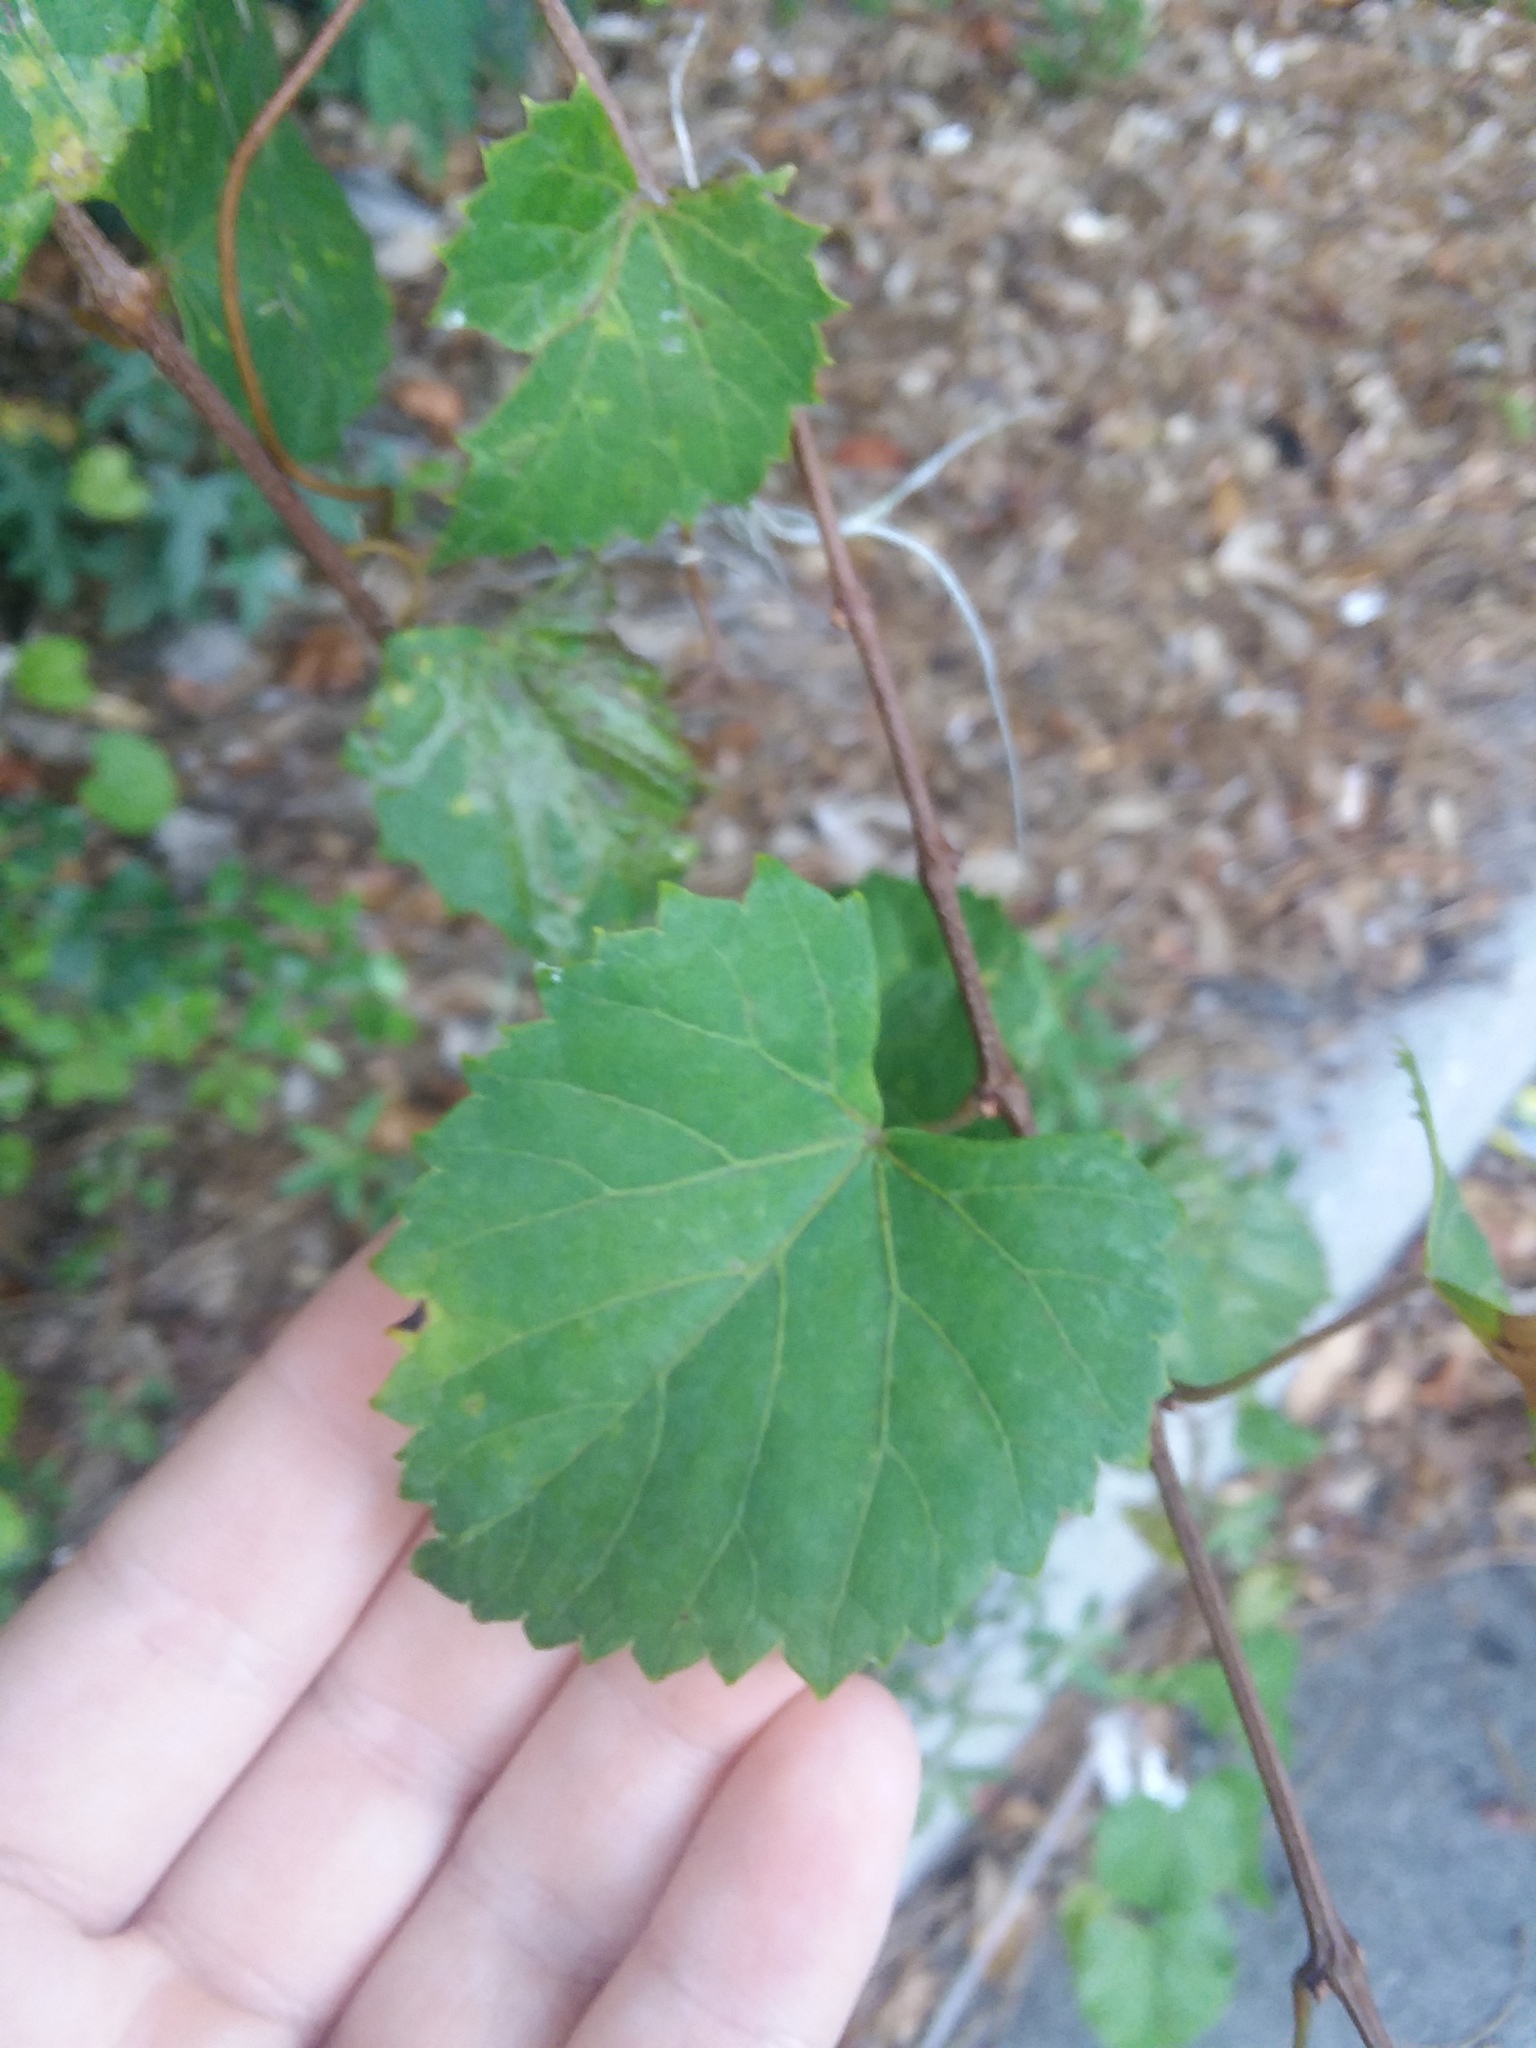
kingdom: Plantae
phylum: Tracheophyta
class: Magnoliopsida
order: Vitales
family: Vitaceae
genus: Vitis
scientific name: Vitis rotundifolia
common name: Muscadine grape
